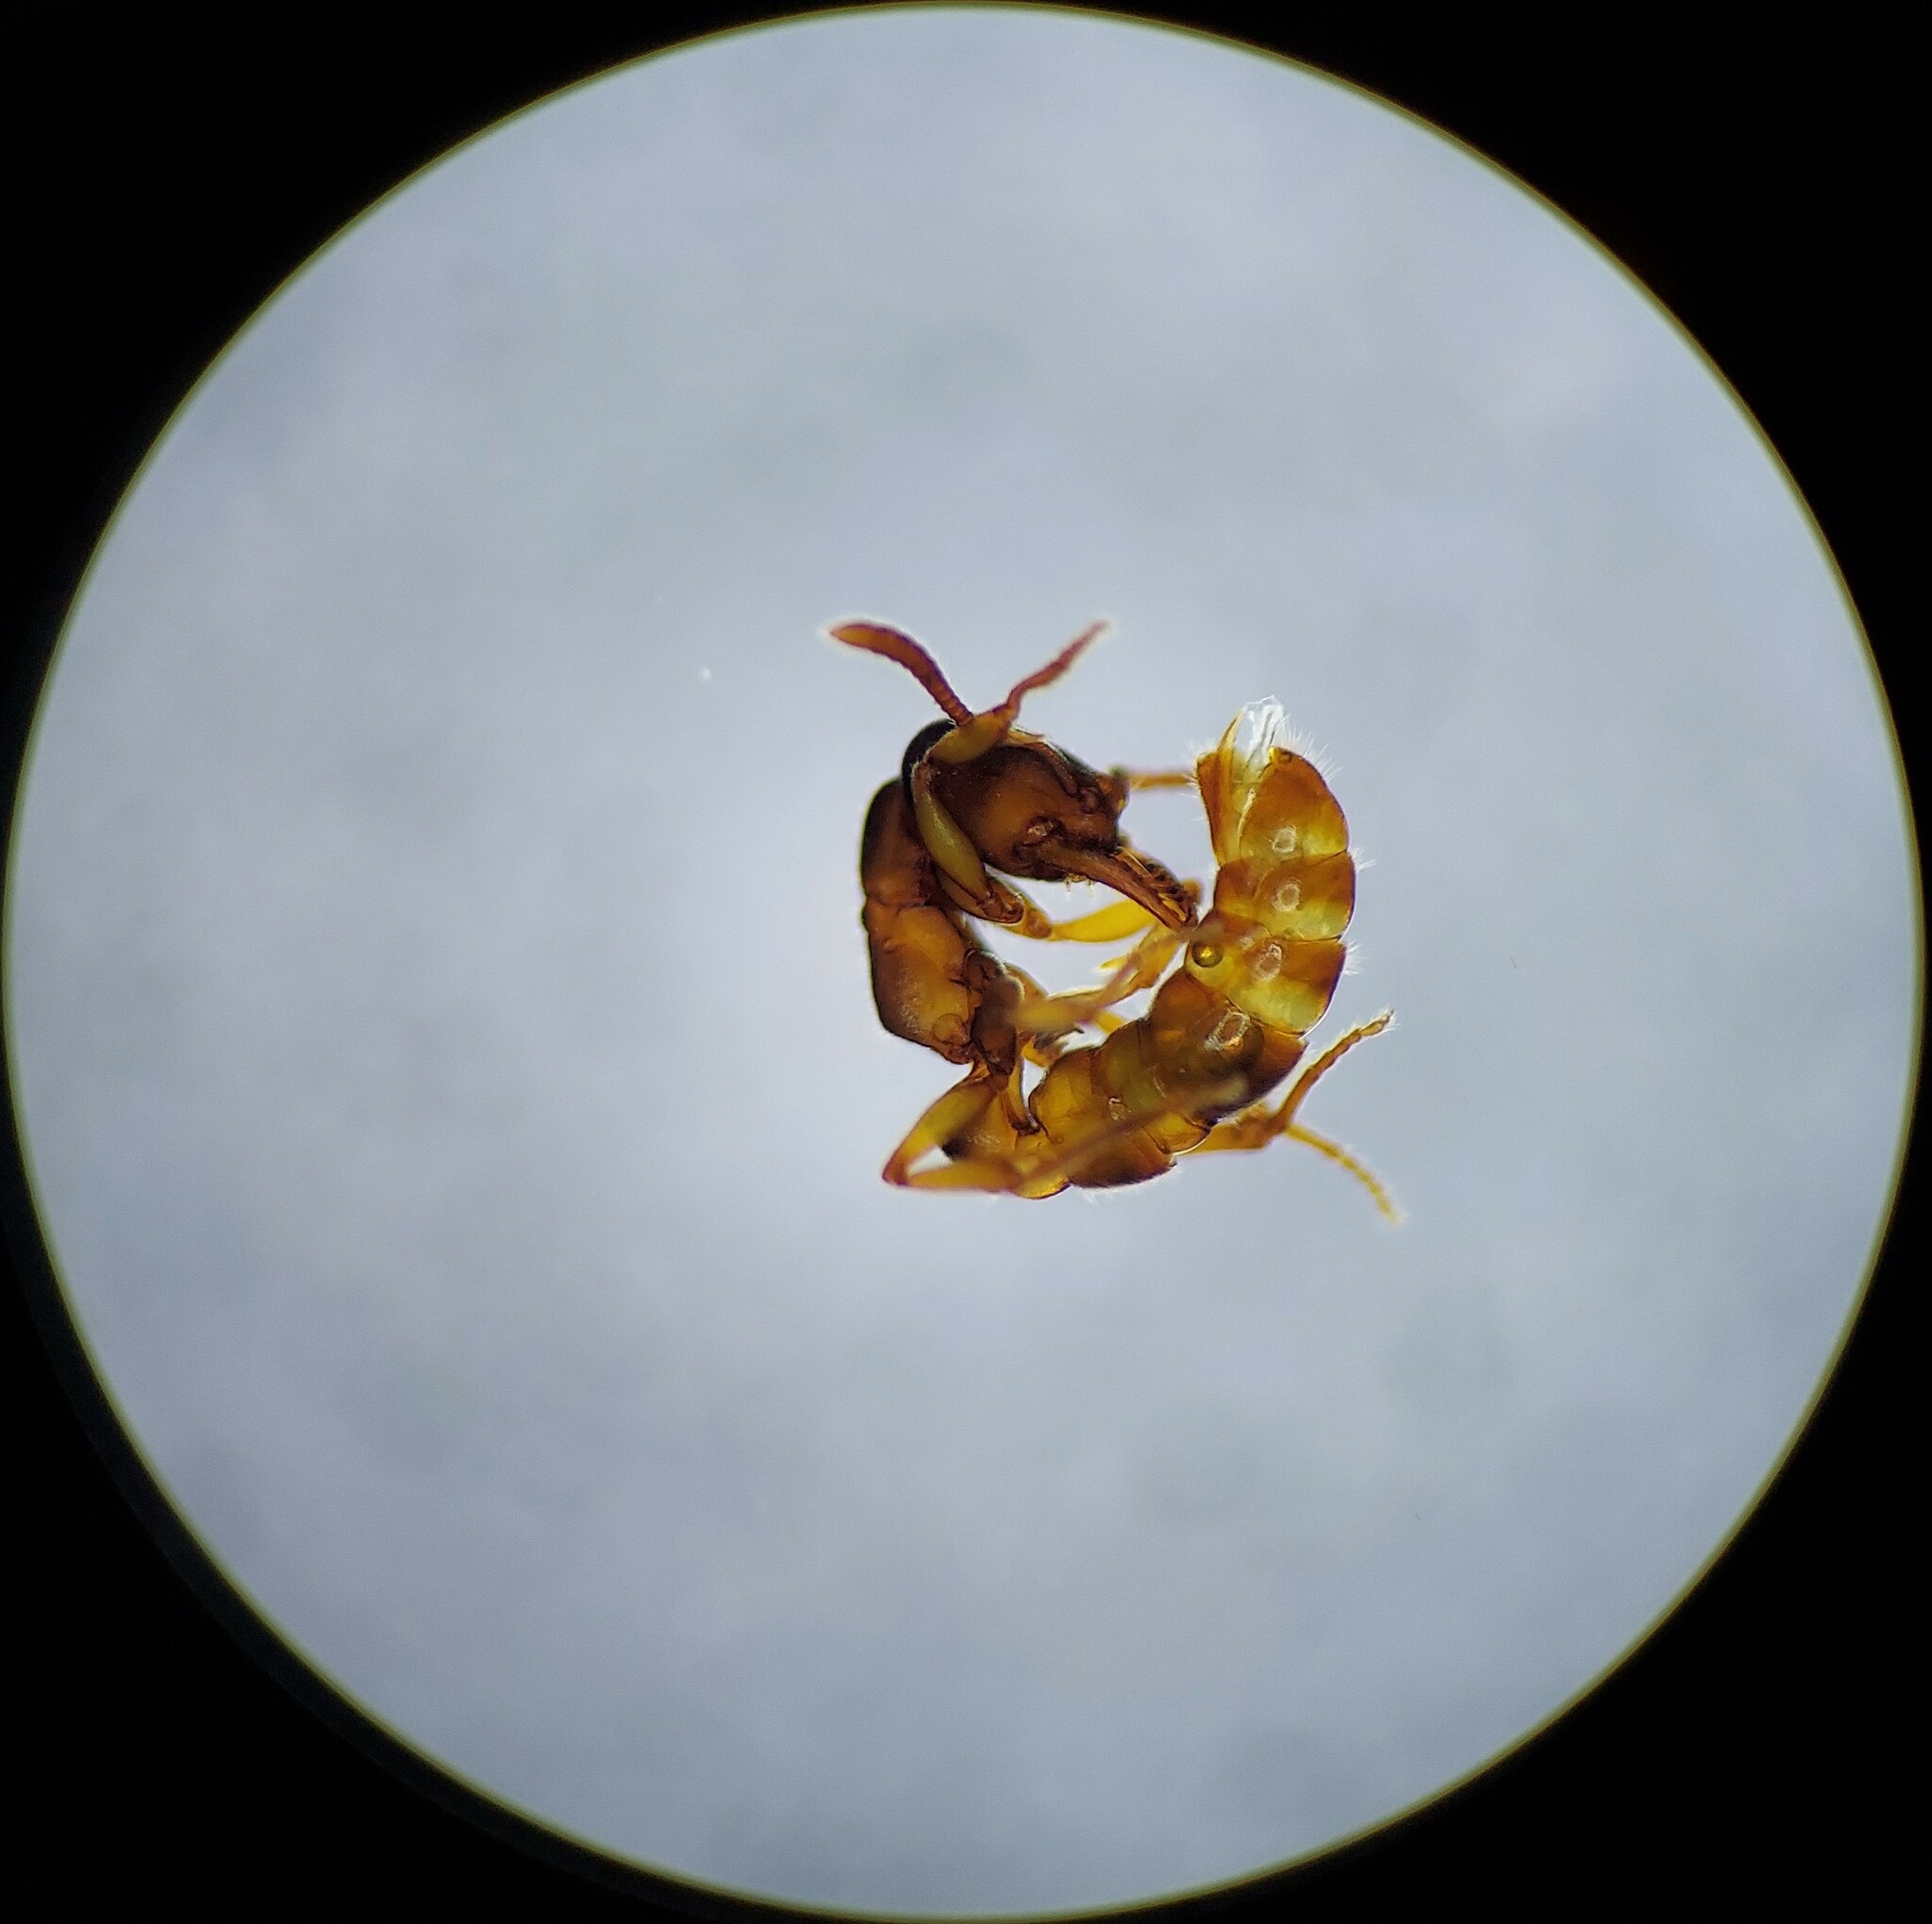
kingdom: Animalia
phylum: Arthropoda
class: Insecta
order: Hymenoptera
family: Formicidae
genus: Stigmatomma
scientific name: Stigmatomma pallipes
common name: Vampire ant
